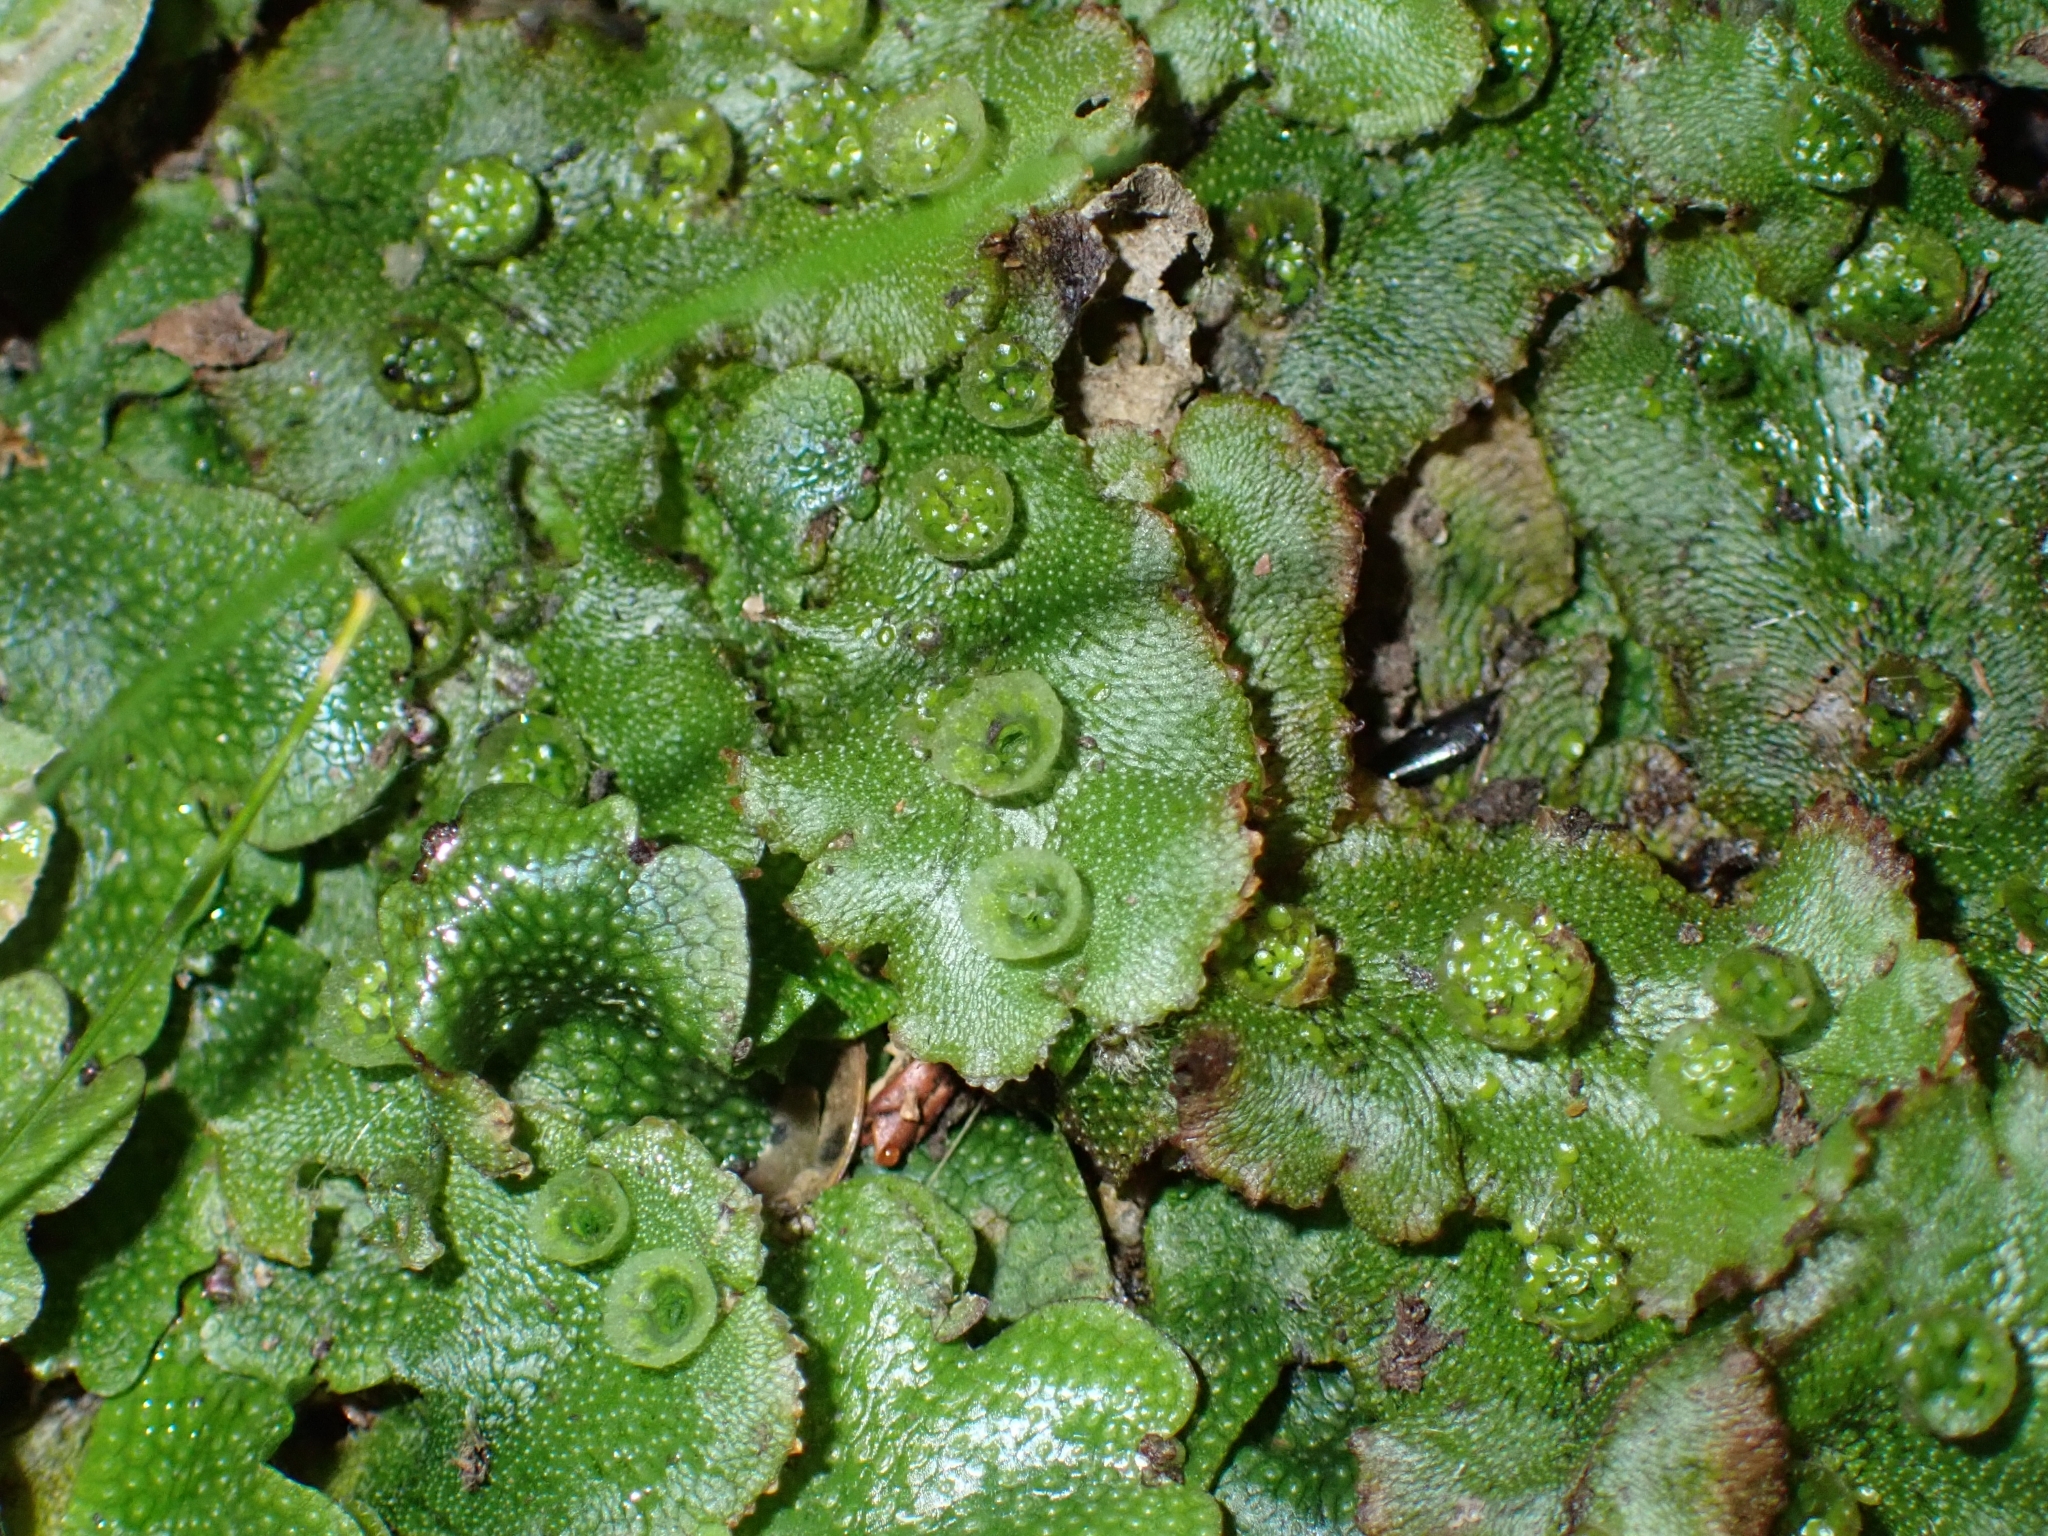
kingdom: Plantae
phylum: Marchantiophyta
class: Marchantiopsida
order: Marchantiales
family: Marchantiaceae
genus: Marchantia
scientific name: Marchantia polymorpha
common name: Common liverwort
